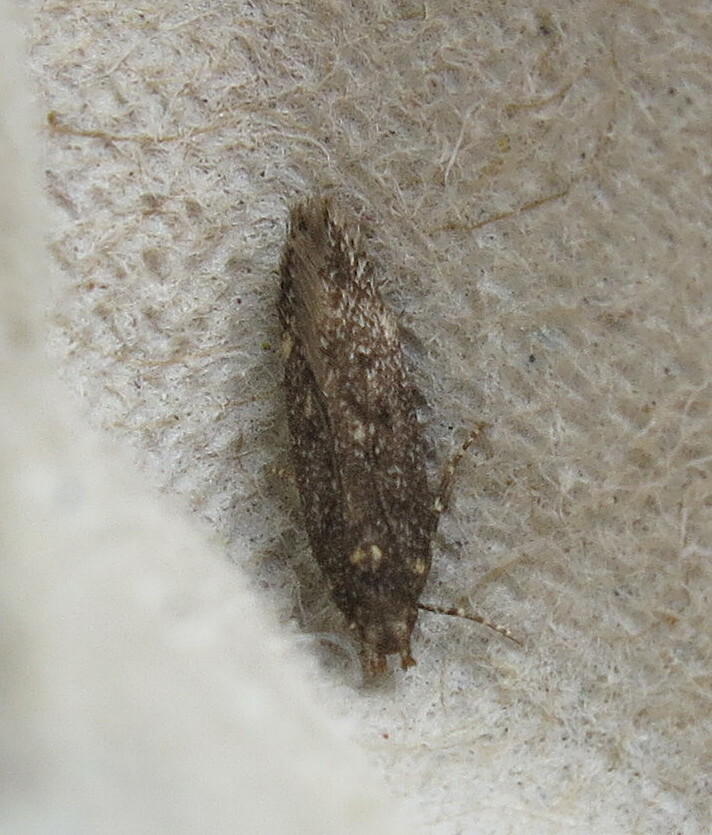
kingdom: Animalia
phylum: Arthropoda
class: Insecta
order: Lepidoptera
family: Gelechiidae
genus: Bryotropha
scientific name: Bryotropha affinis
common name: Dark groundling
